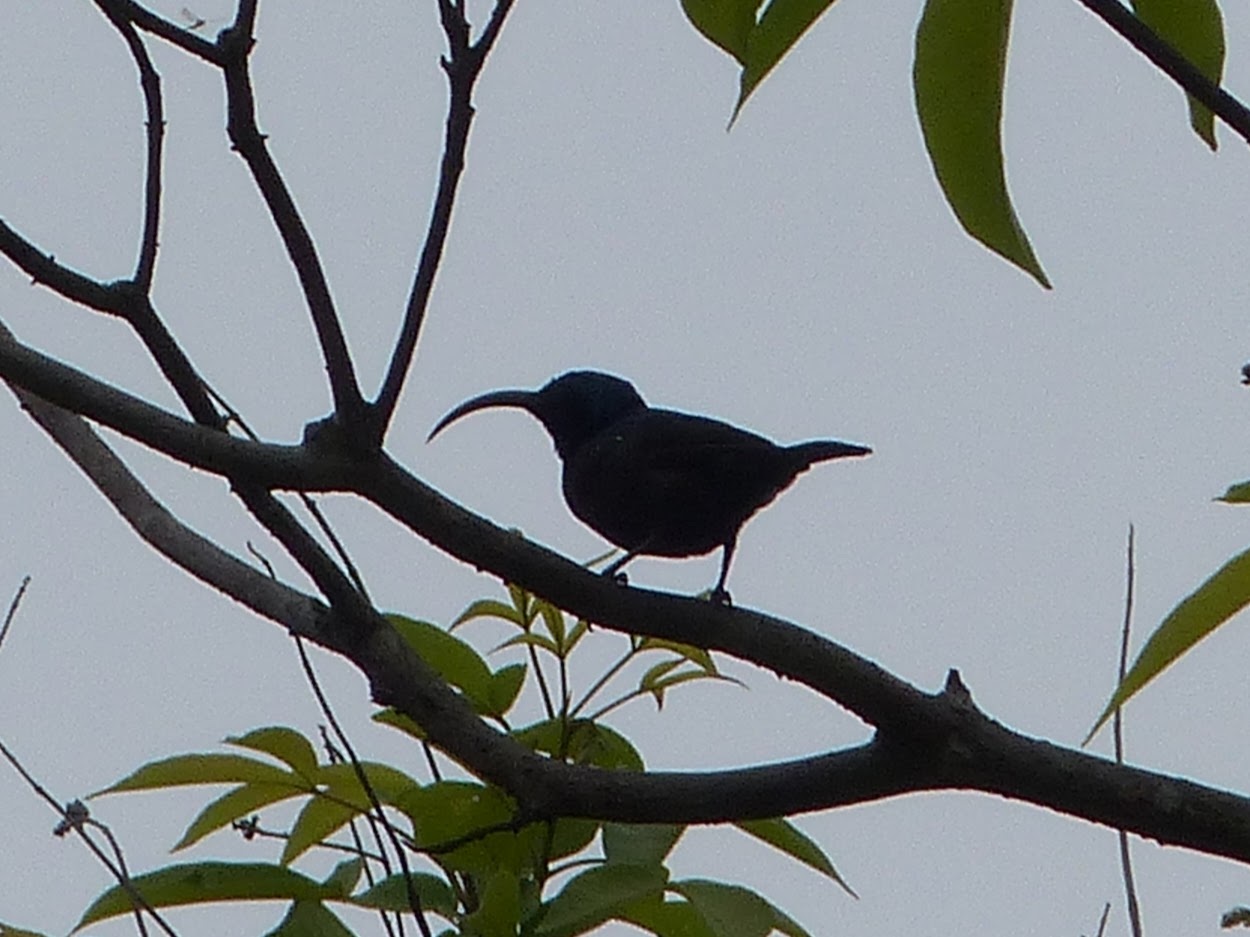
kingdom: Animalia
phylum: Chordata
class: Aves
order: Passeriformes
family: Nectariniidae
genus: Cinnyris
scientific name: Cinnyris lotenius
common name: Loten's sunbird
